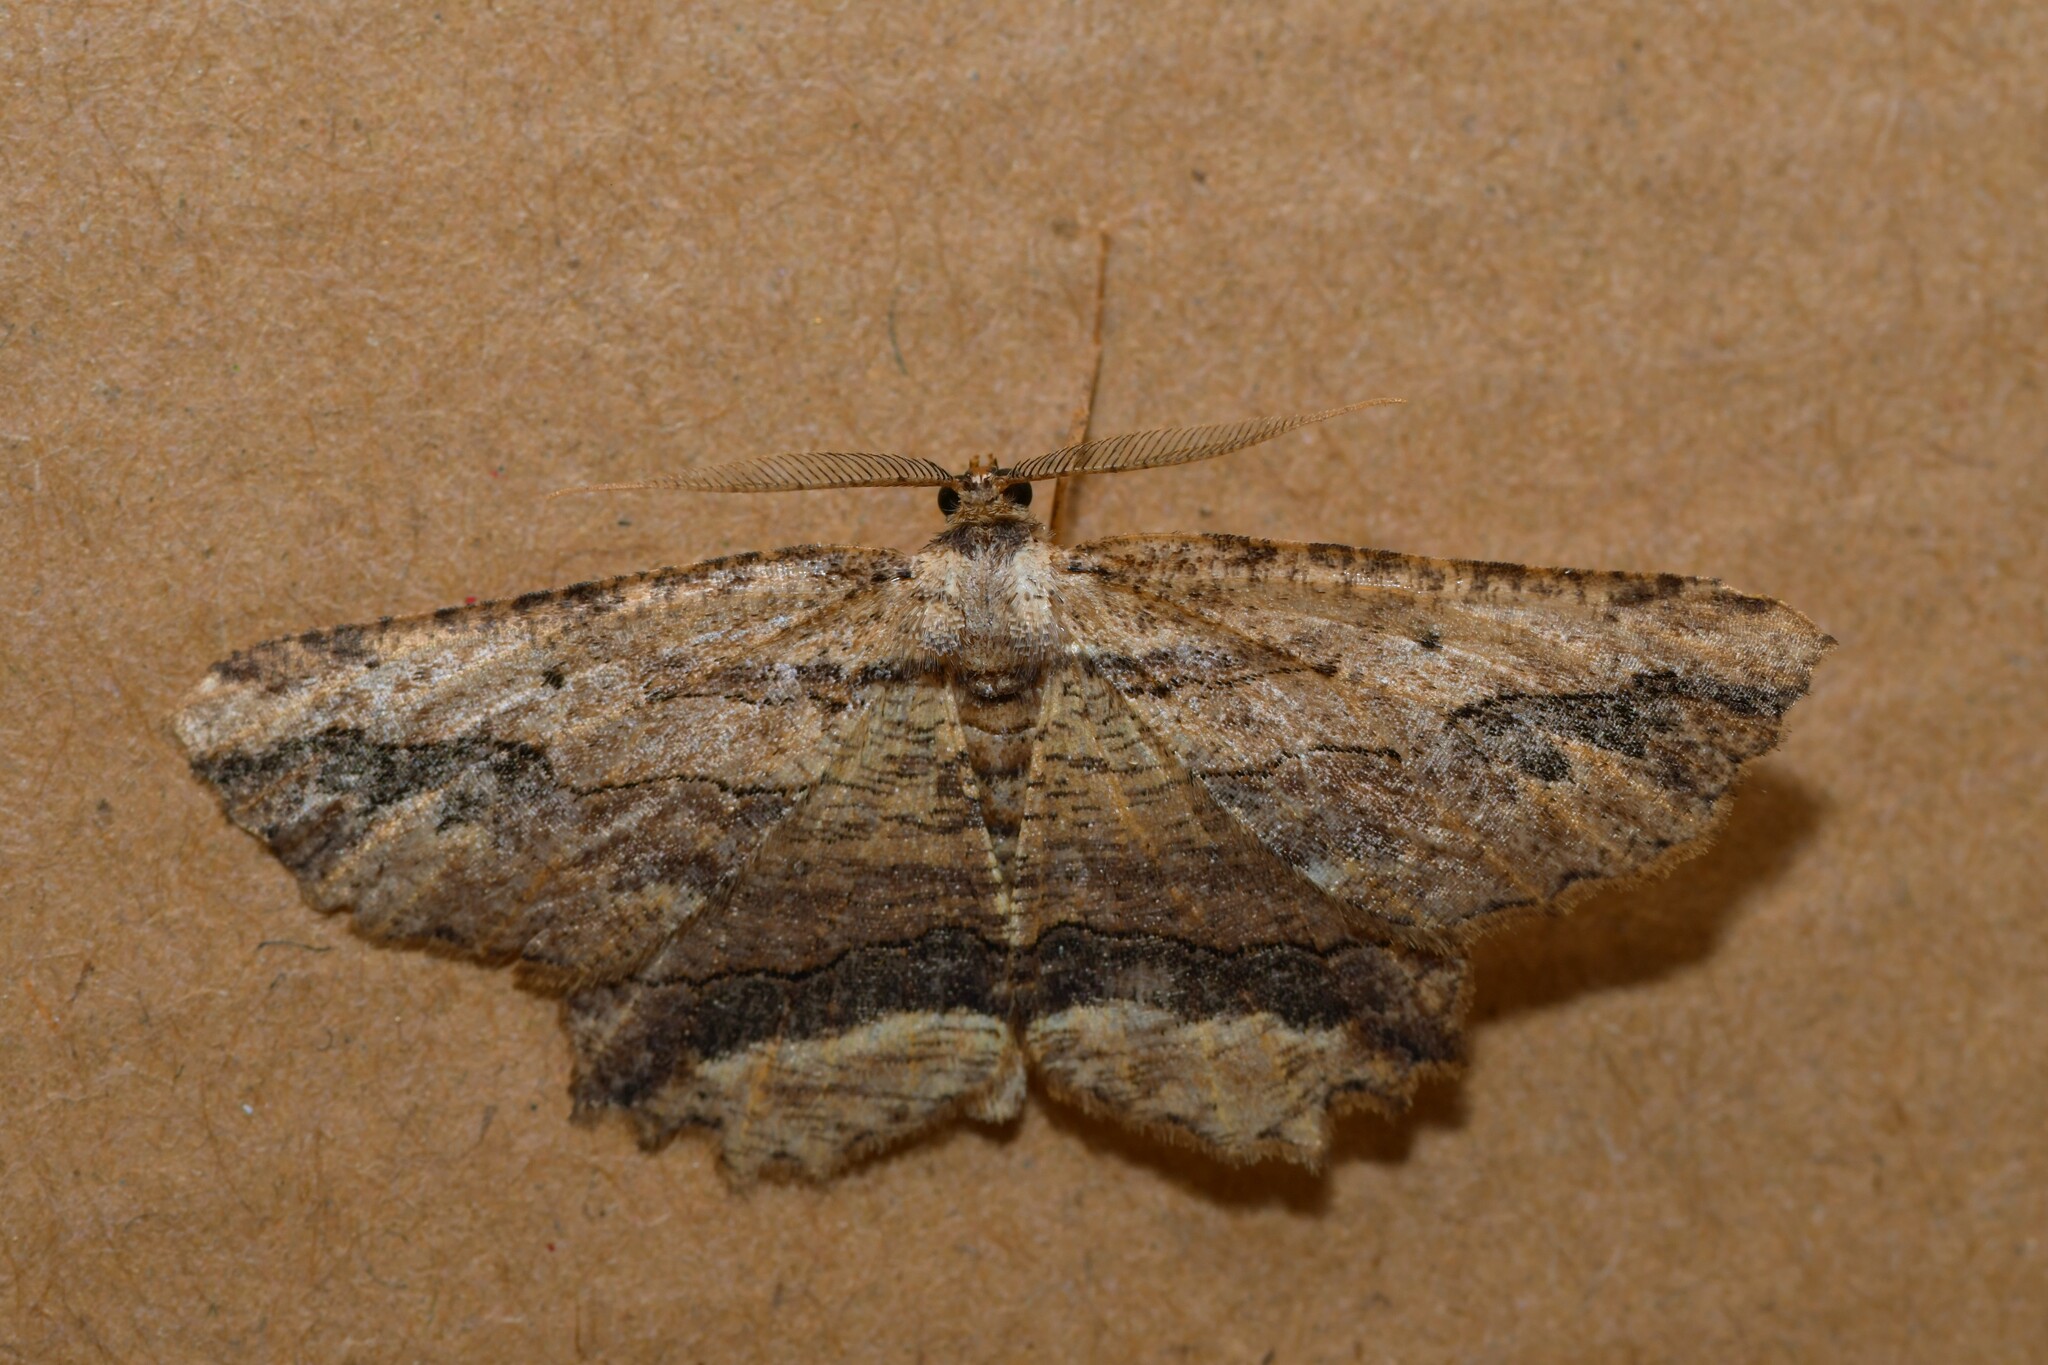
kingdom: Animalia
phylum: Arthropoda
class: Insecta
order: Lepidoptera
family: Geometridae
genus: Menophra
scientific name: Menophra abruptaria
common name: Waved umber
